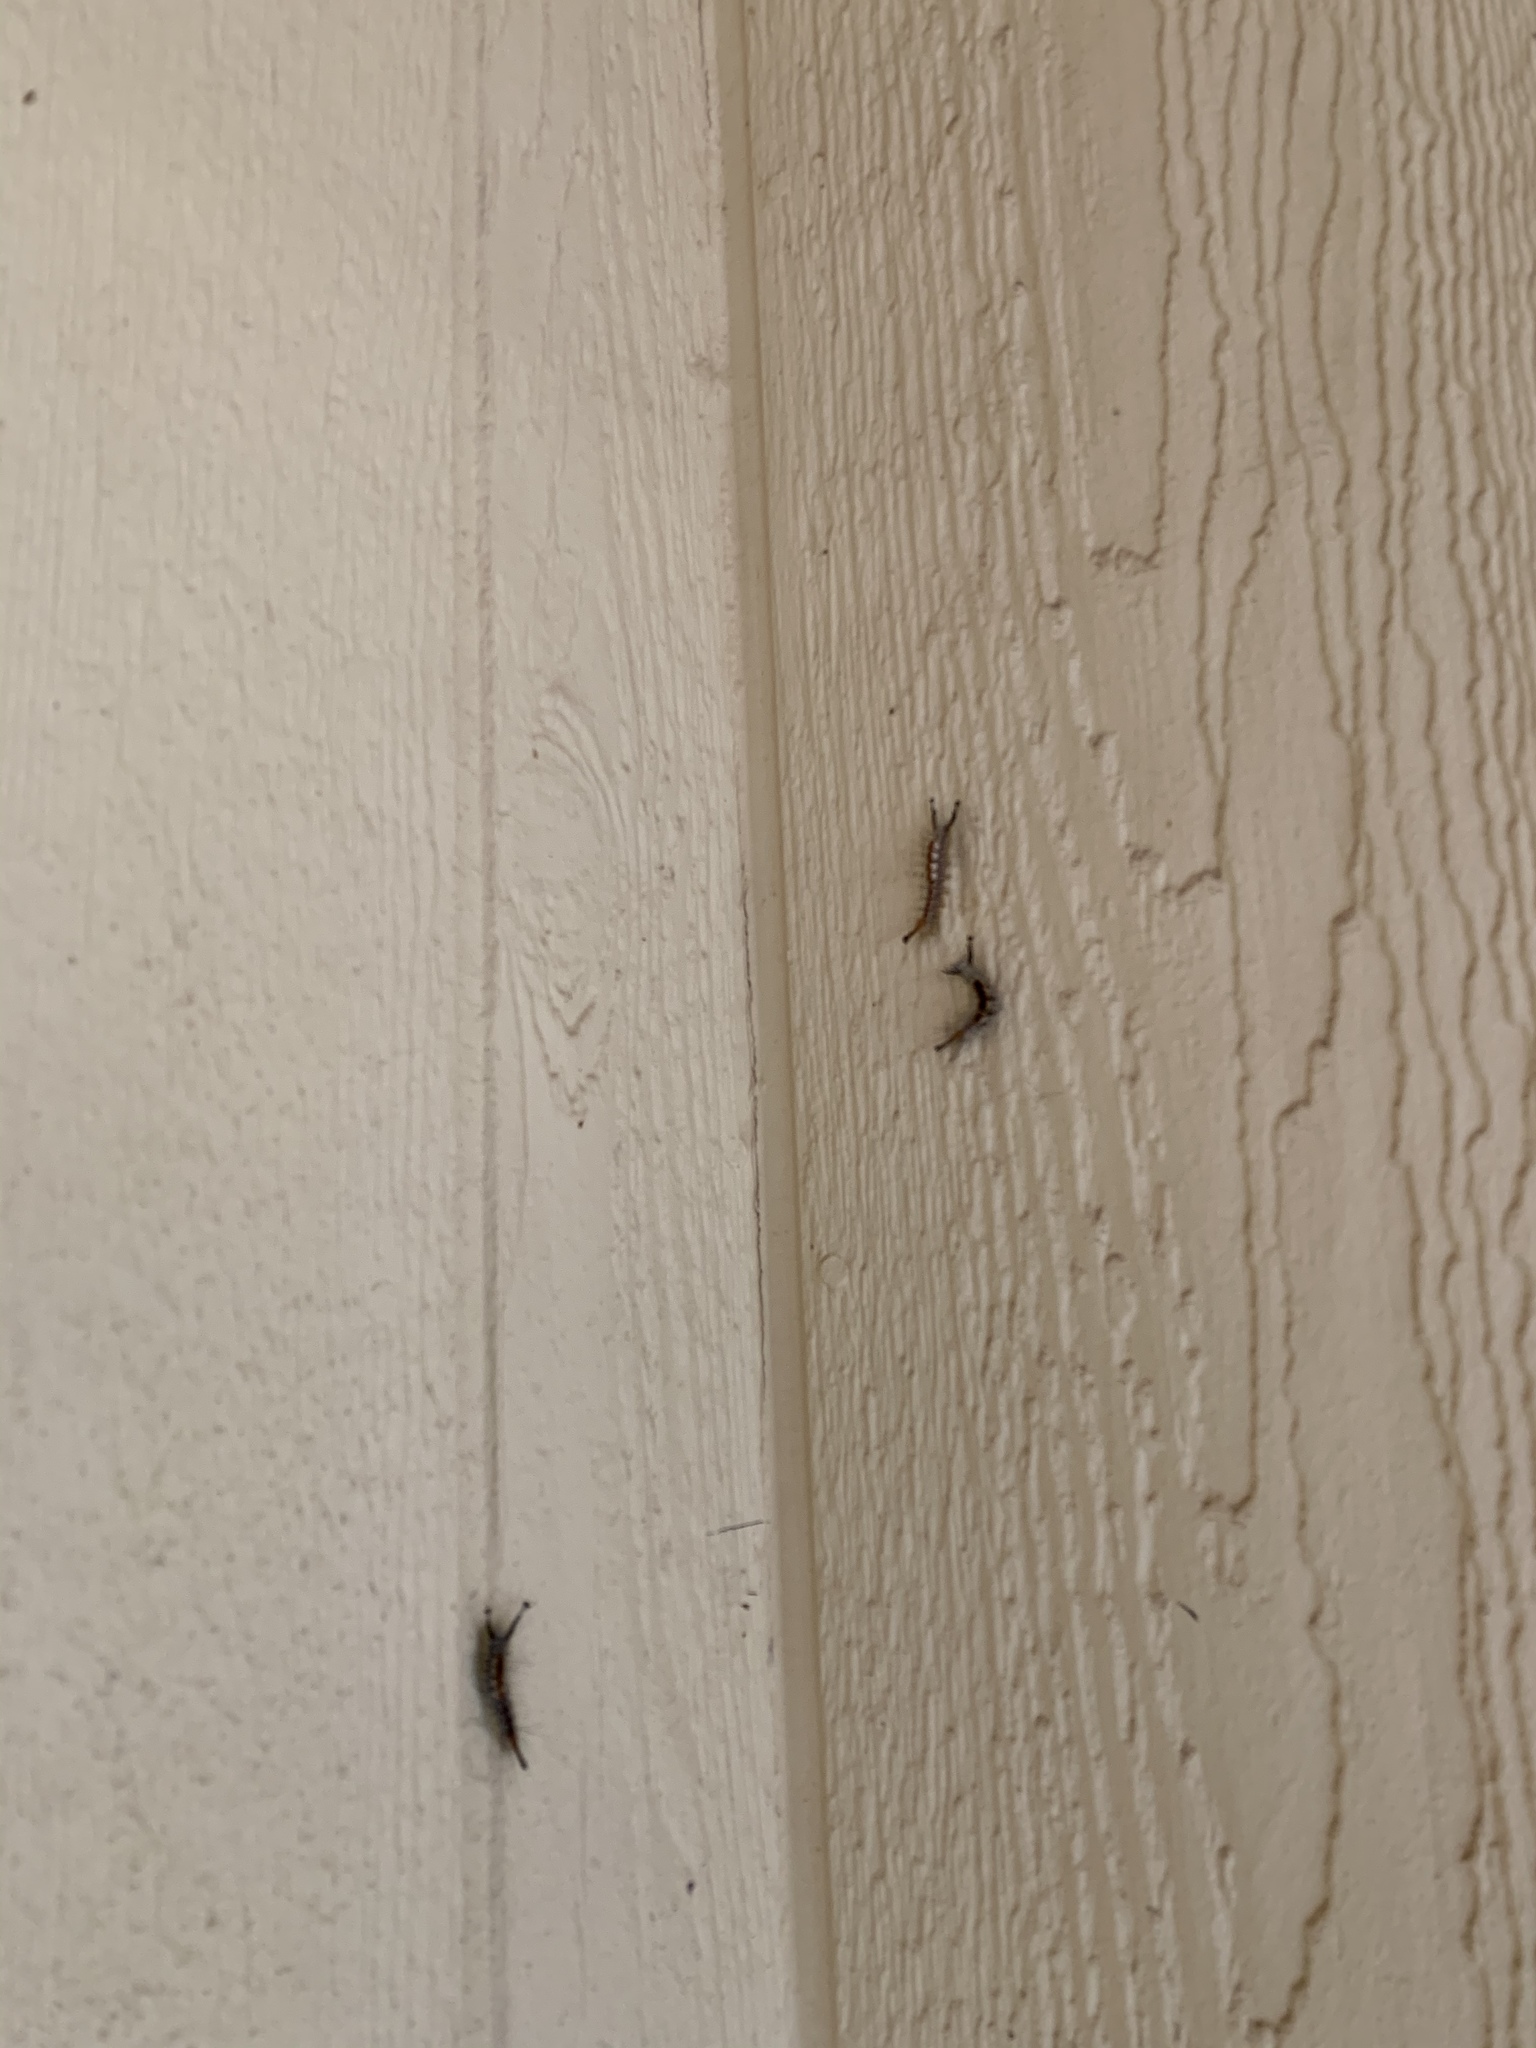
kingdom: Animalia
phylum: Arthropoda
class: Insecta
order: Lepidoptera
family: Erebidae
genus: Orgyia
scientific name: Orgyia pseudotsugata
